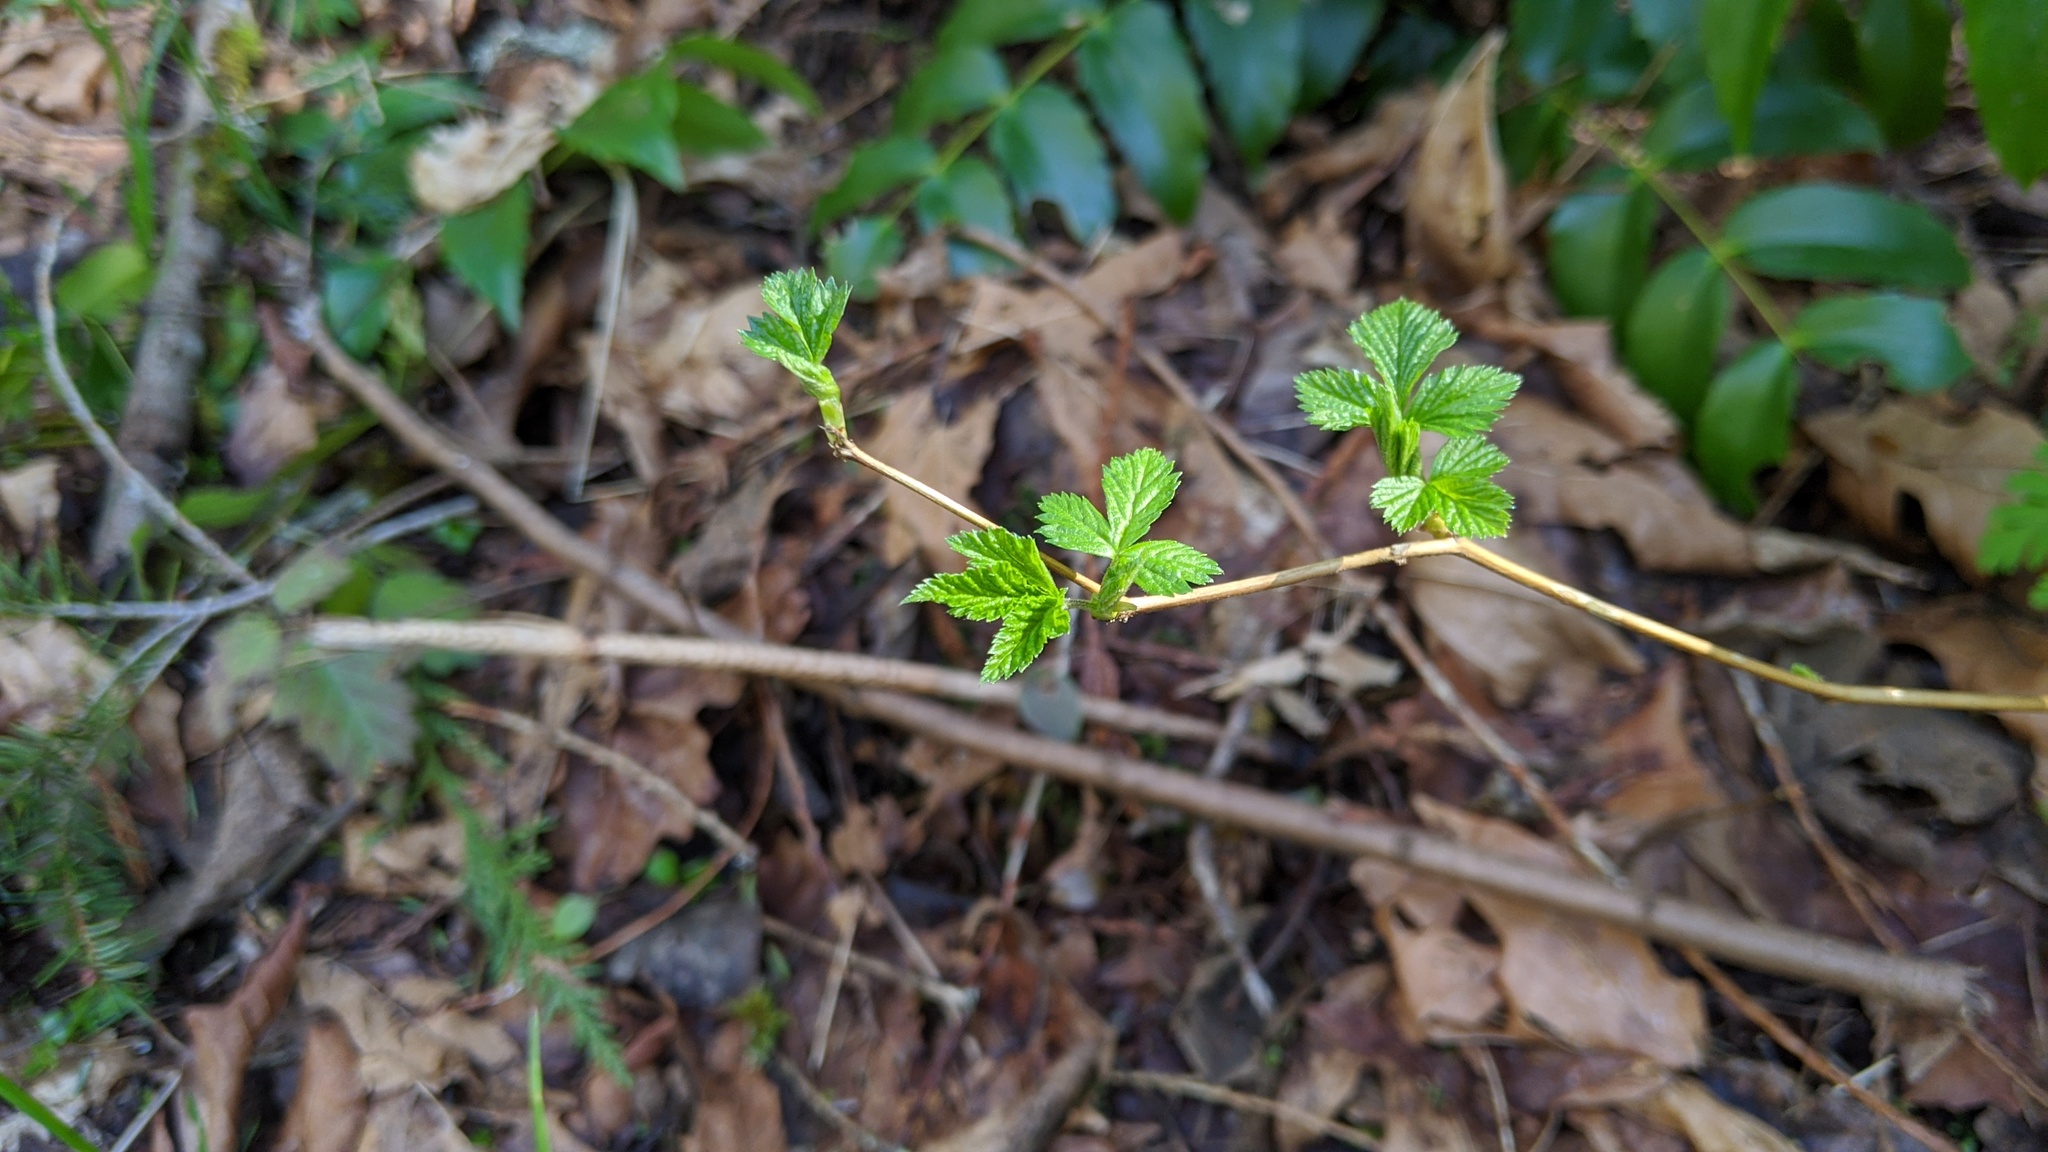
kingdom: Plantae
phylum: Tracheophyta
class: Magnoliopsida
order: Rosales
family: Rosaceae
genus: Rubus
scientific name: Rubus spectabilis
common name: Salmonberry
